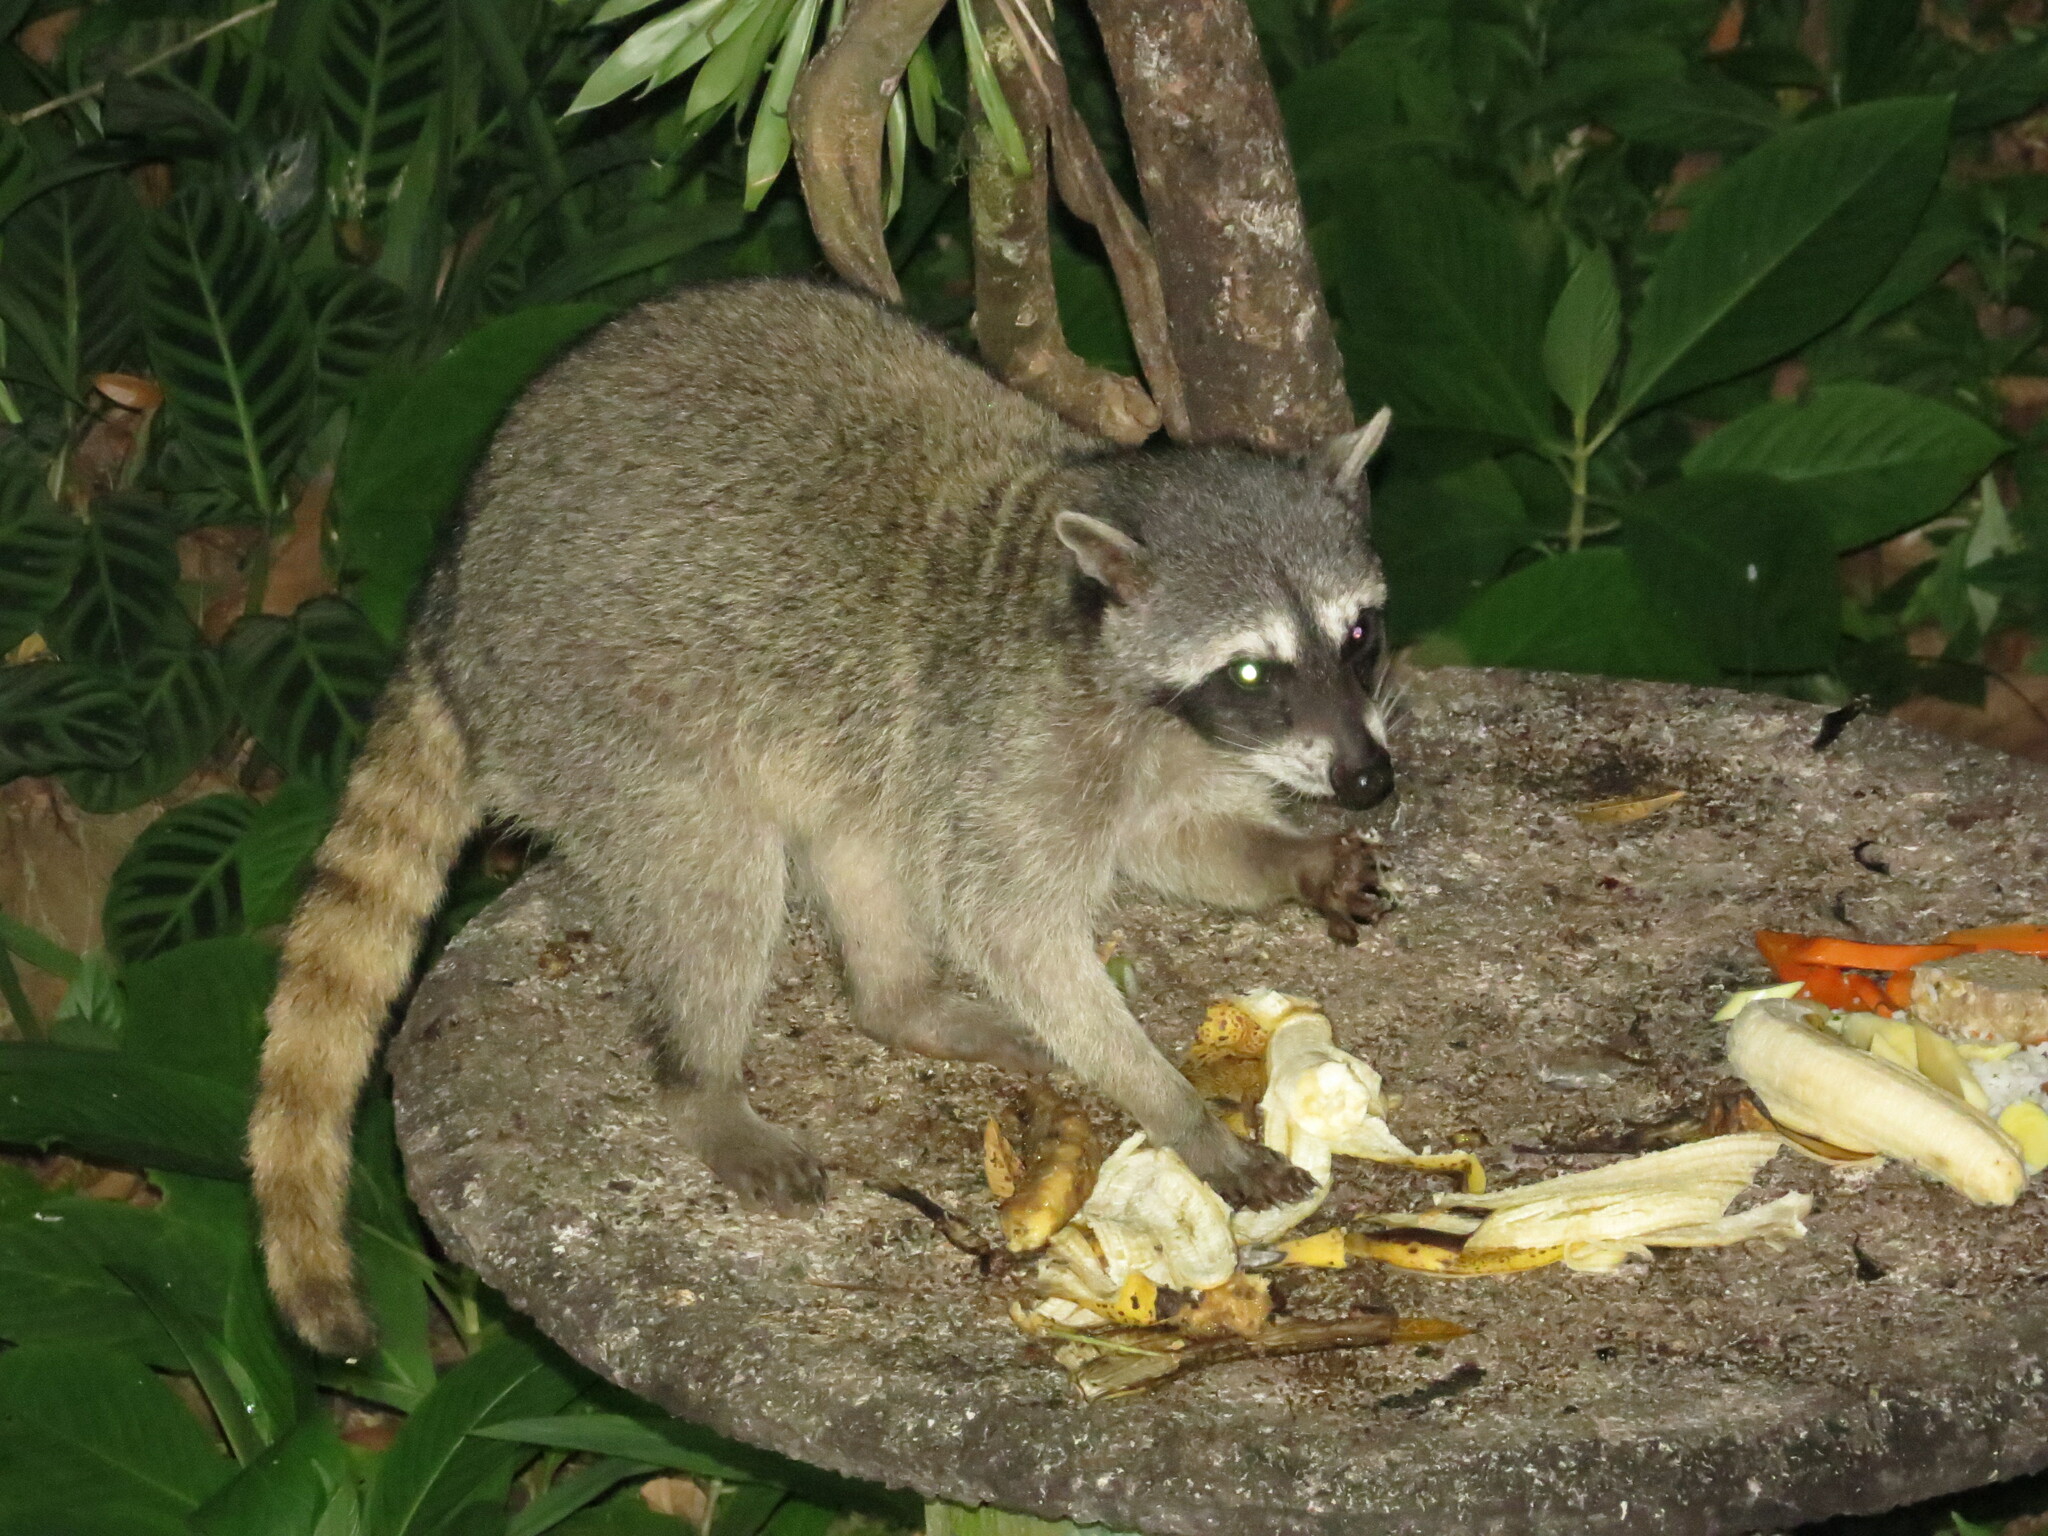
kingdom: Animalia
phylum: Chordata
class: Mammalia
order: Carnivora
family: Procyonidae
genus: Procyon
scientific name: Procyon lotor
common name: Raccoon
